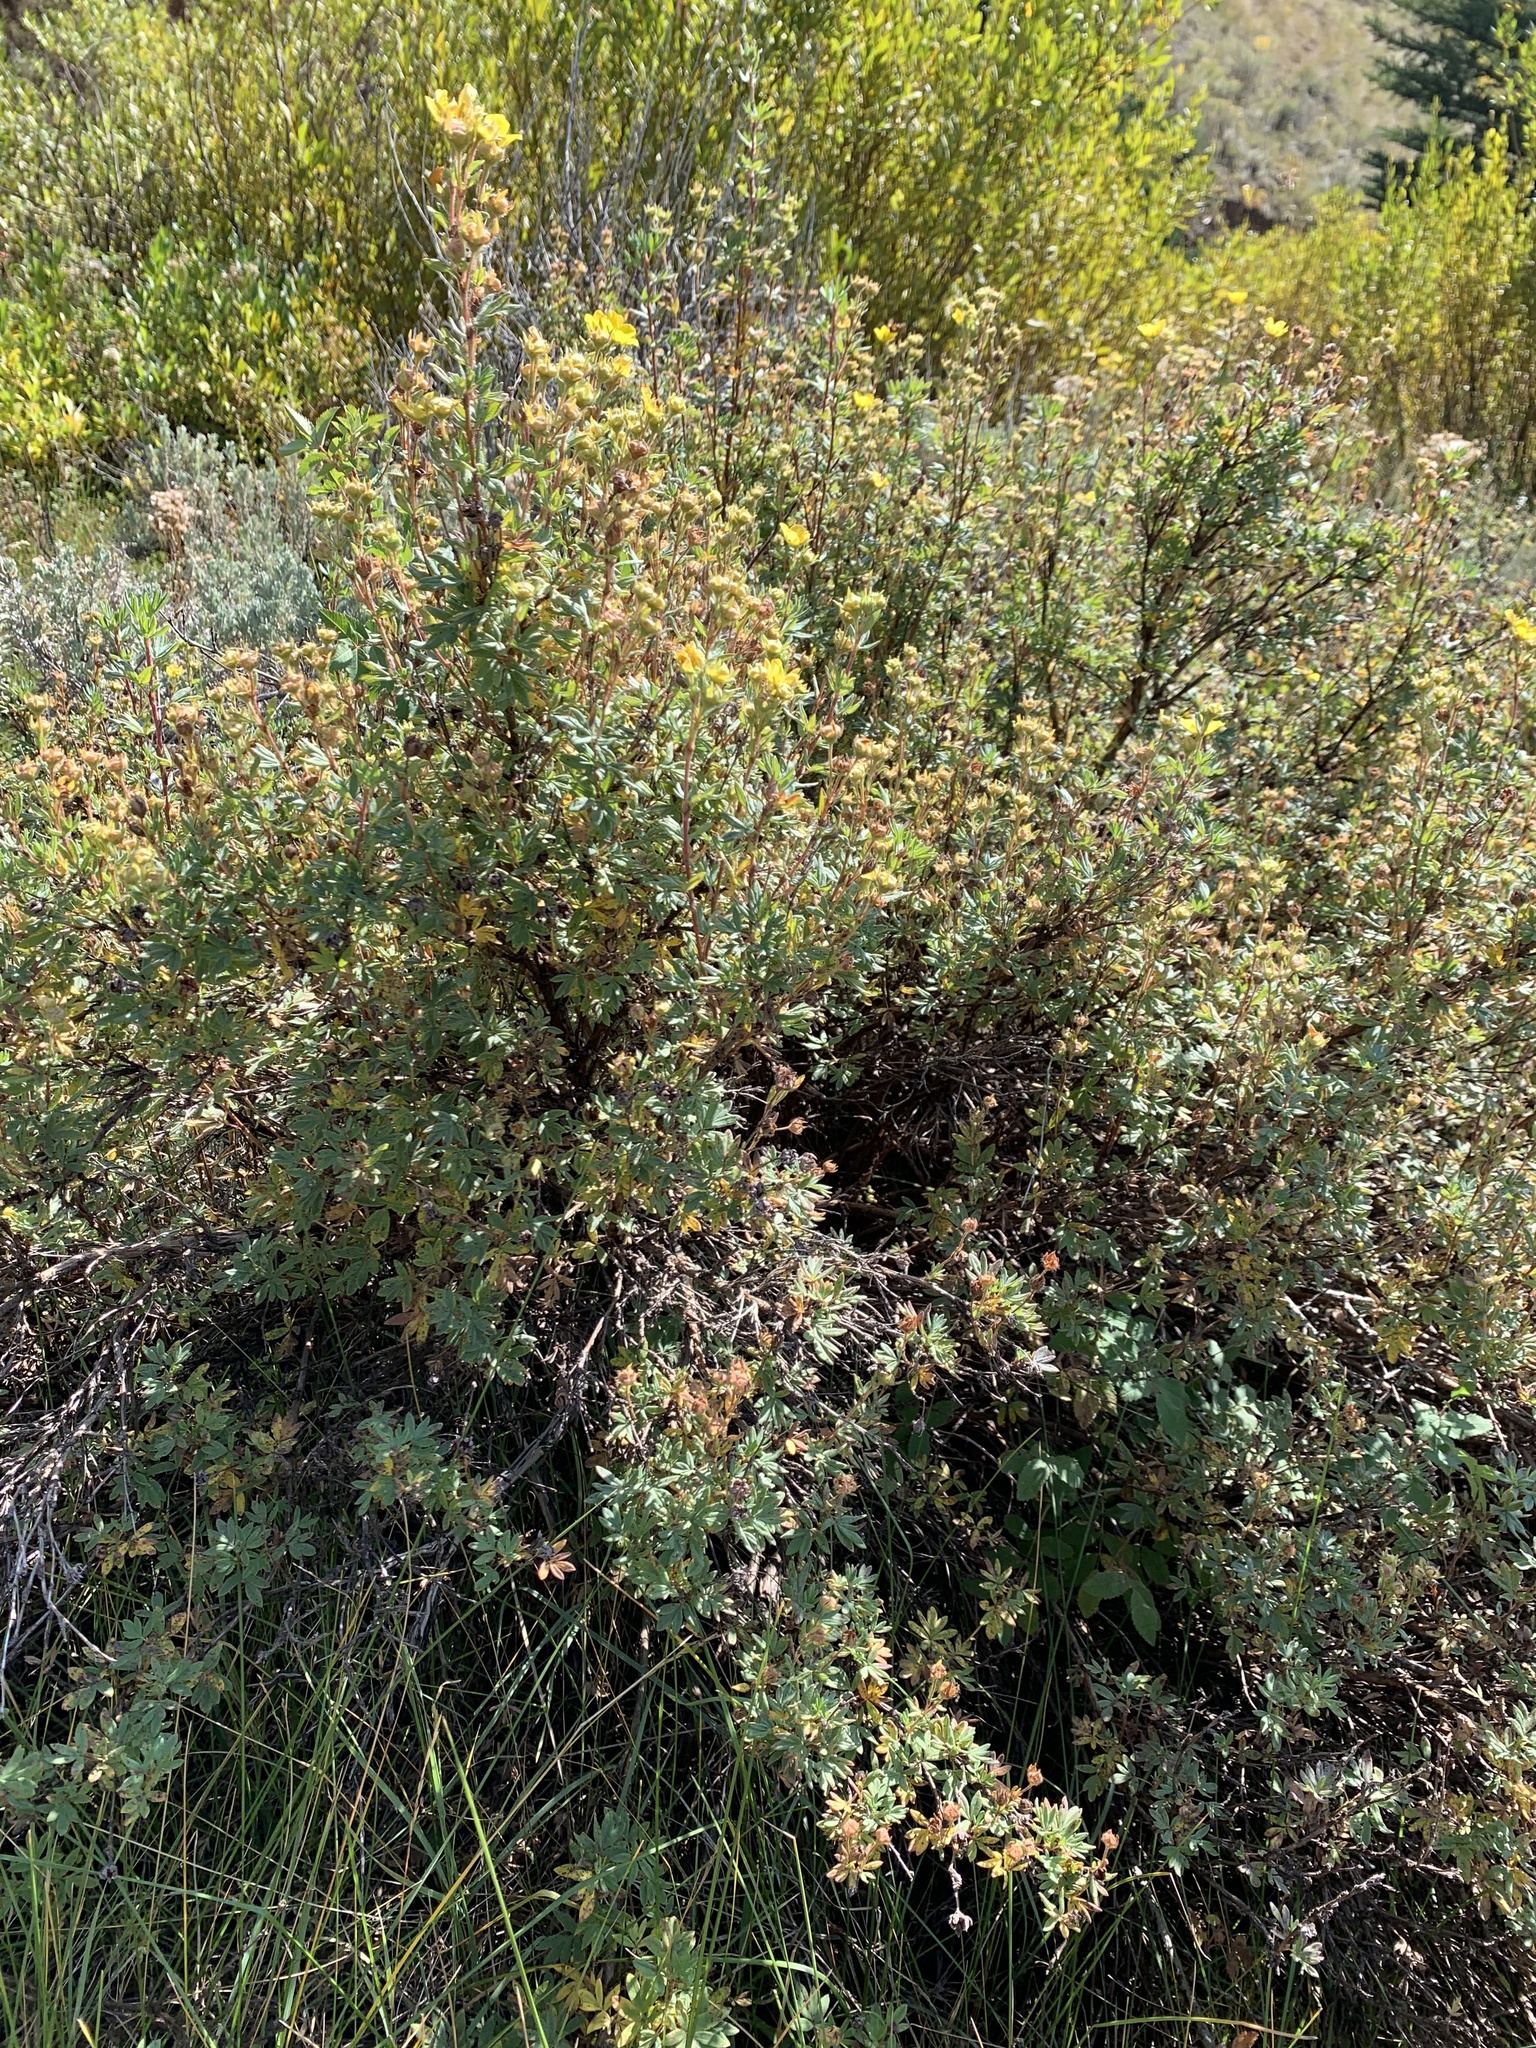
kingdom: Plantae
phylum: Tracheophyta
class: Magnoliopsida
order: Rosales
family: Rosaceae
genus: Dasiphora
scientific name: Dasiphora fruticosa
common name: Shrubby cinquefoil
